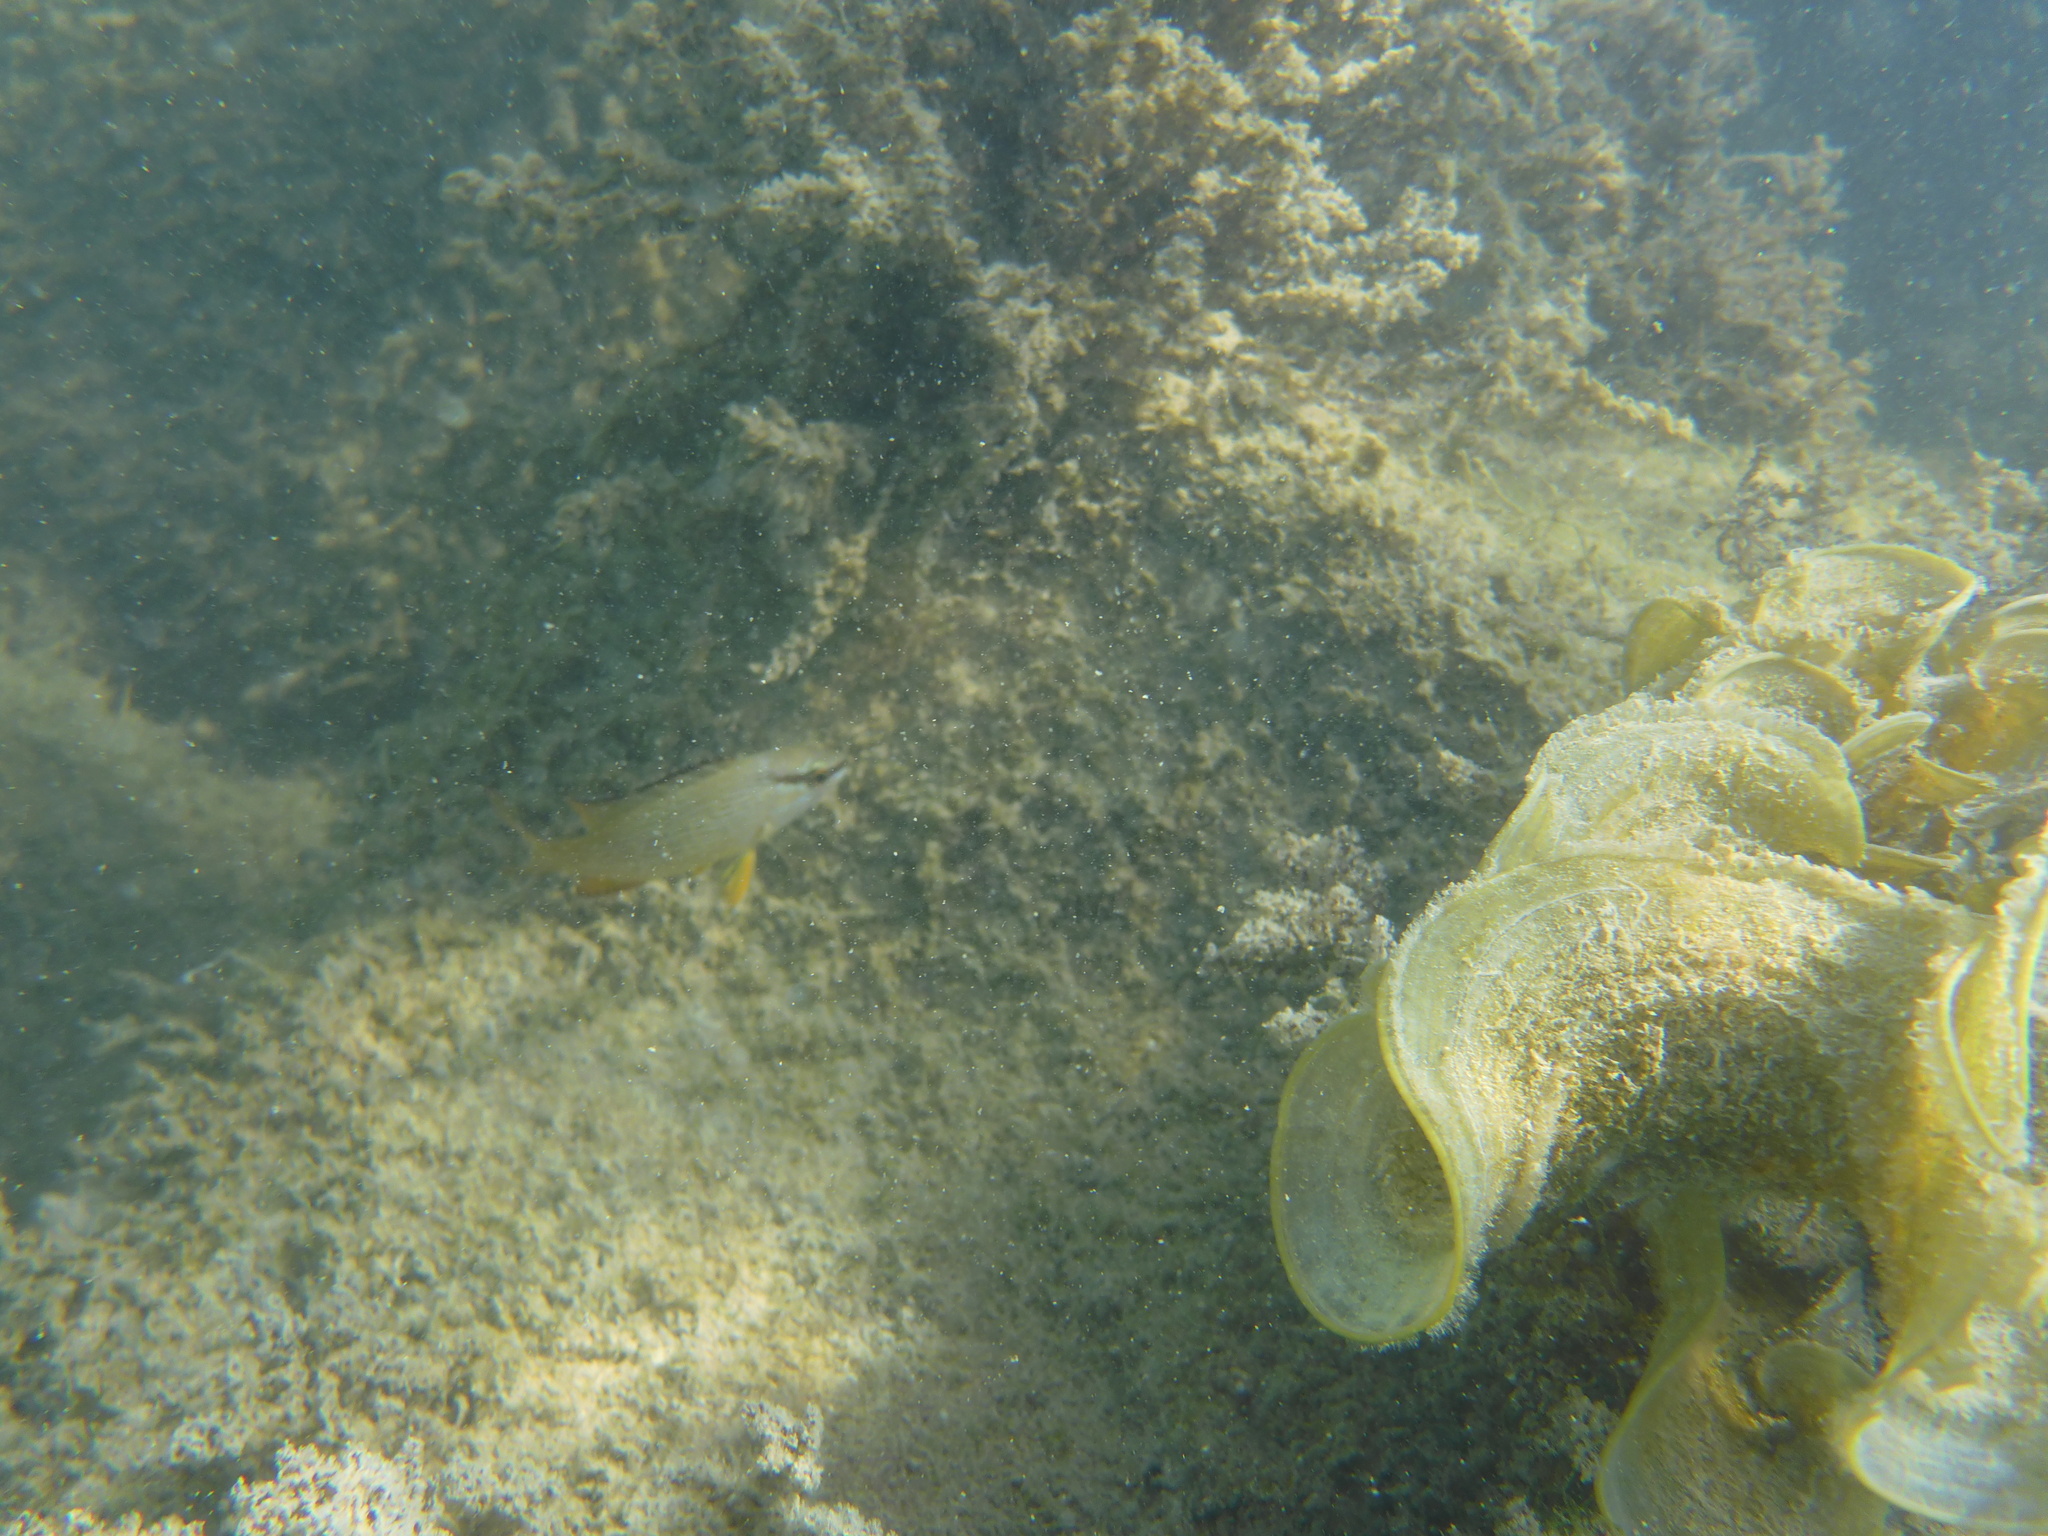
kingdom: Animalia
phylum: Chordata
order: Perciformes
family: Lutjanidae
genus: Lutjanus
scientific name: Lutjanus griseus
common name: Gray snapper
